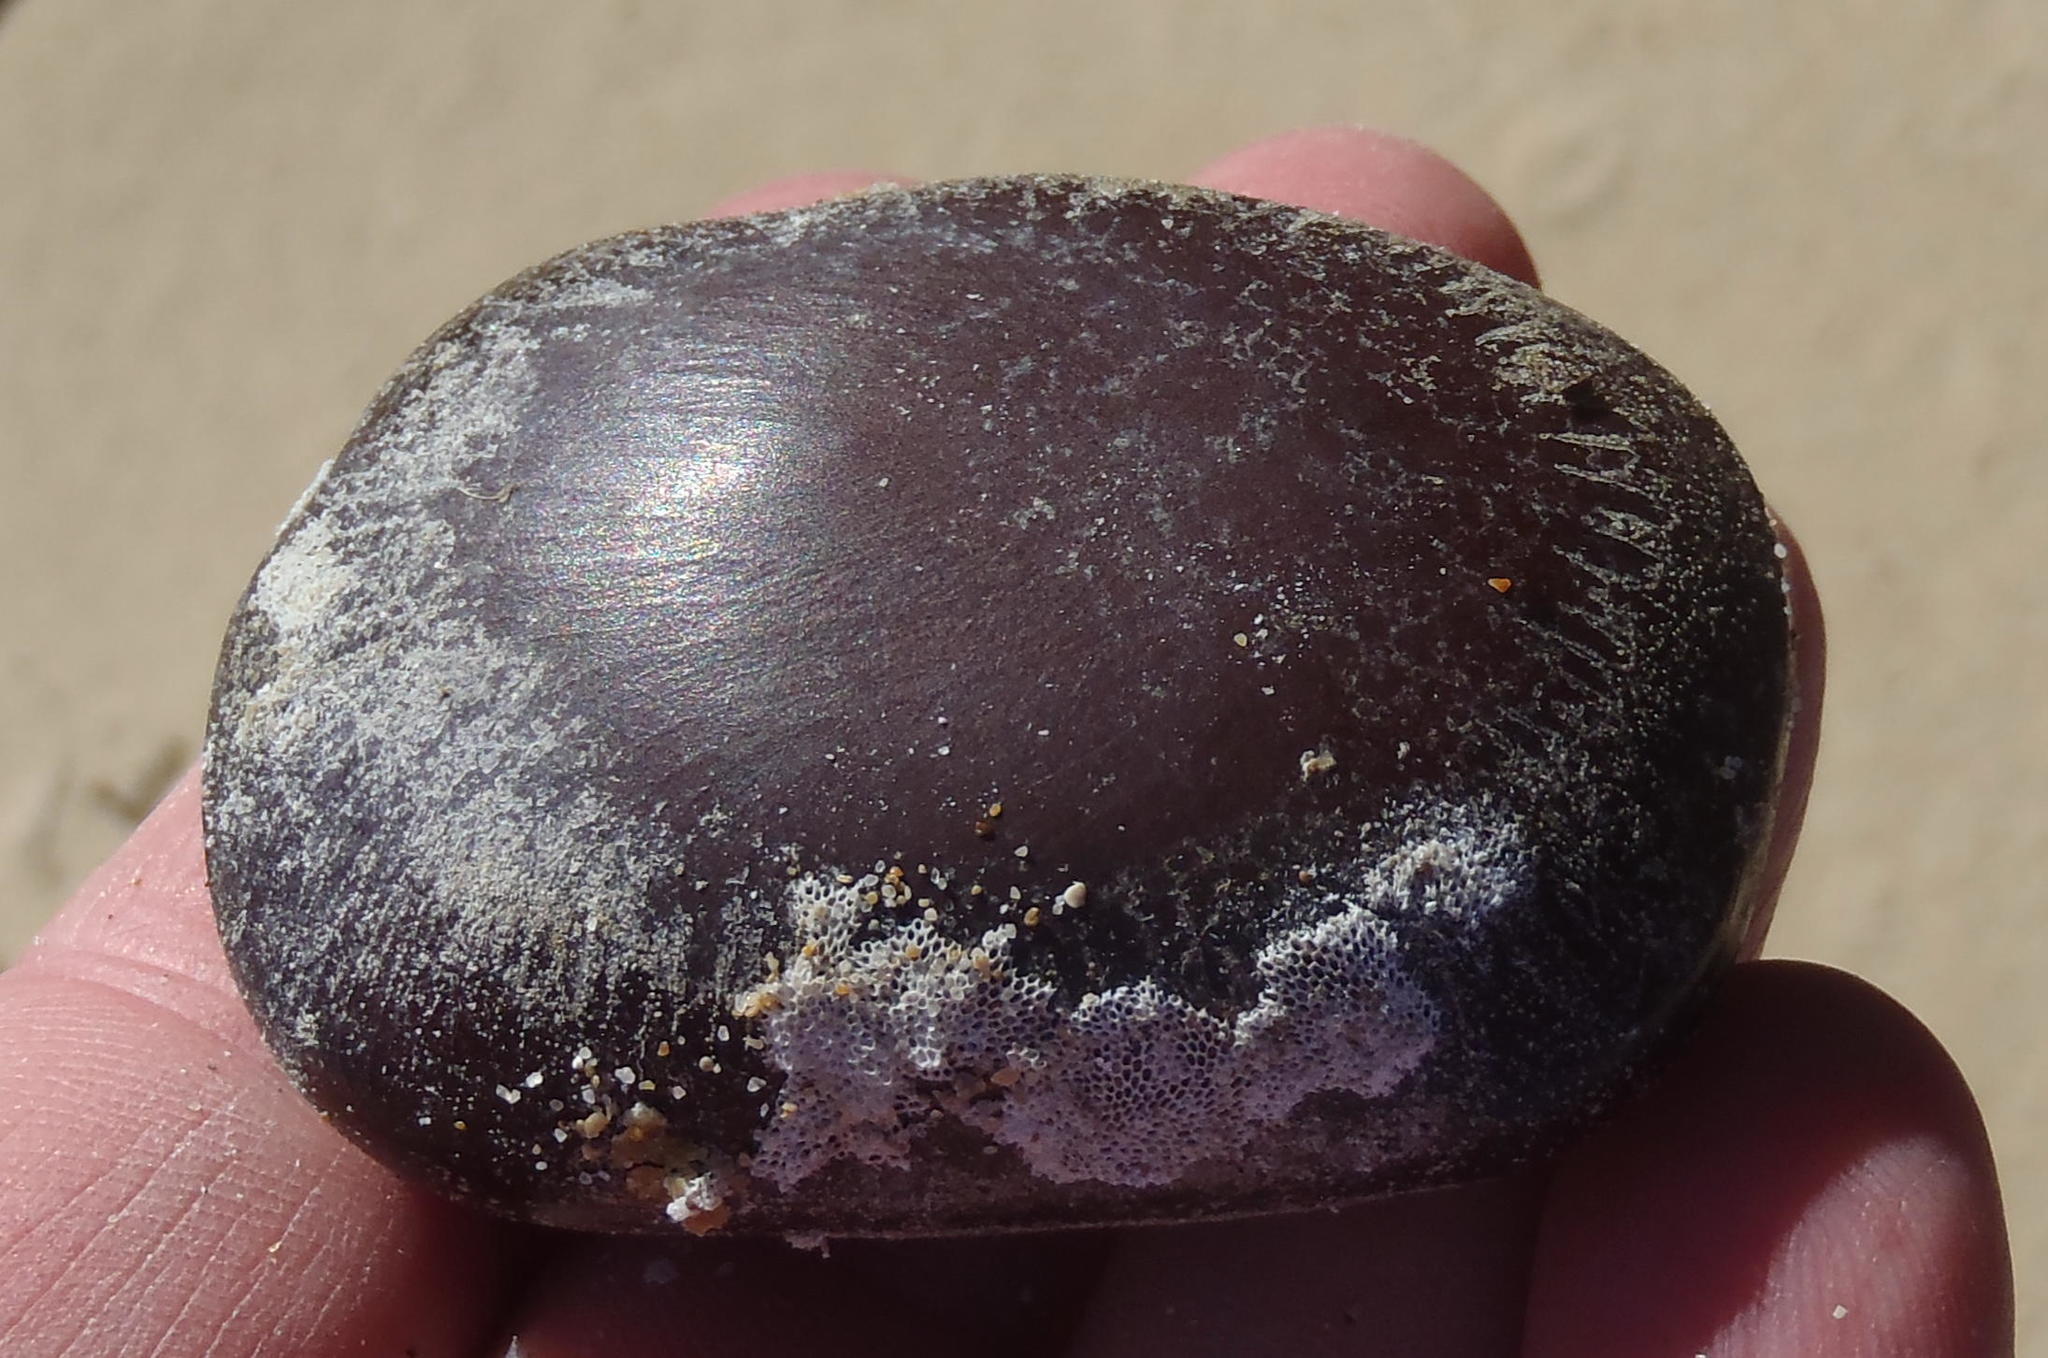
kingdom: Plantae
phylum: Tracheophyta
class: Magnoliopsida
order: Fabales
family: Fabaceae
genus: Entada
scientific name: Entada rheedei
